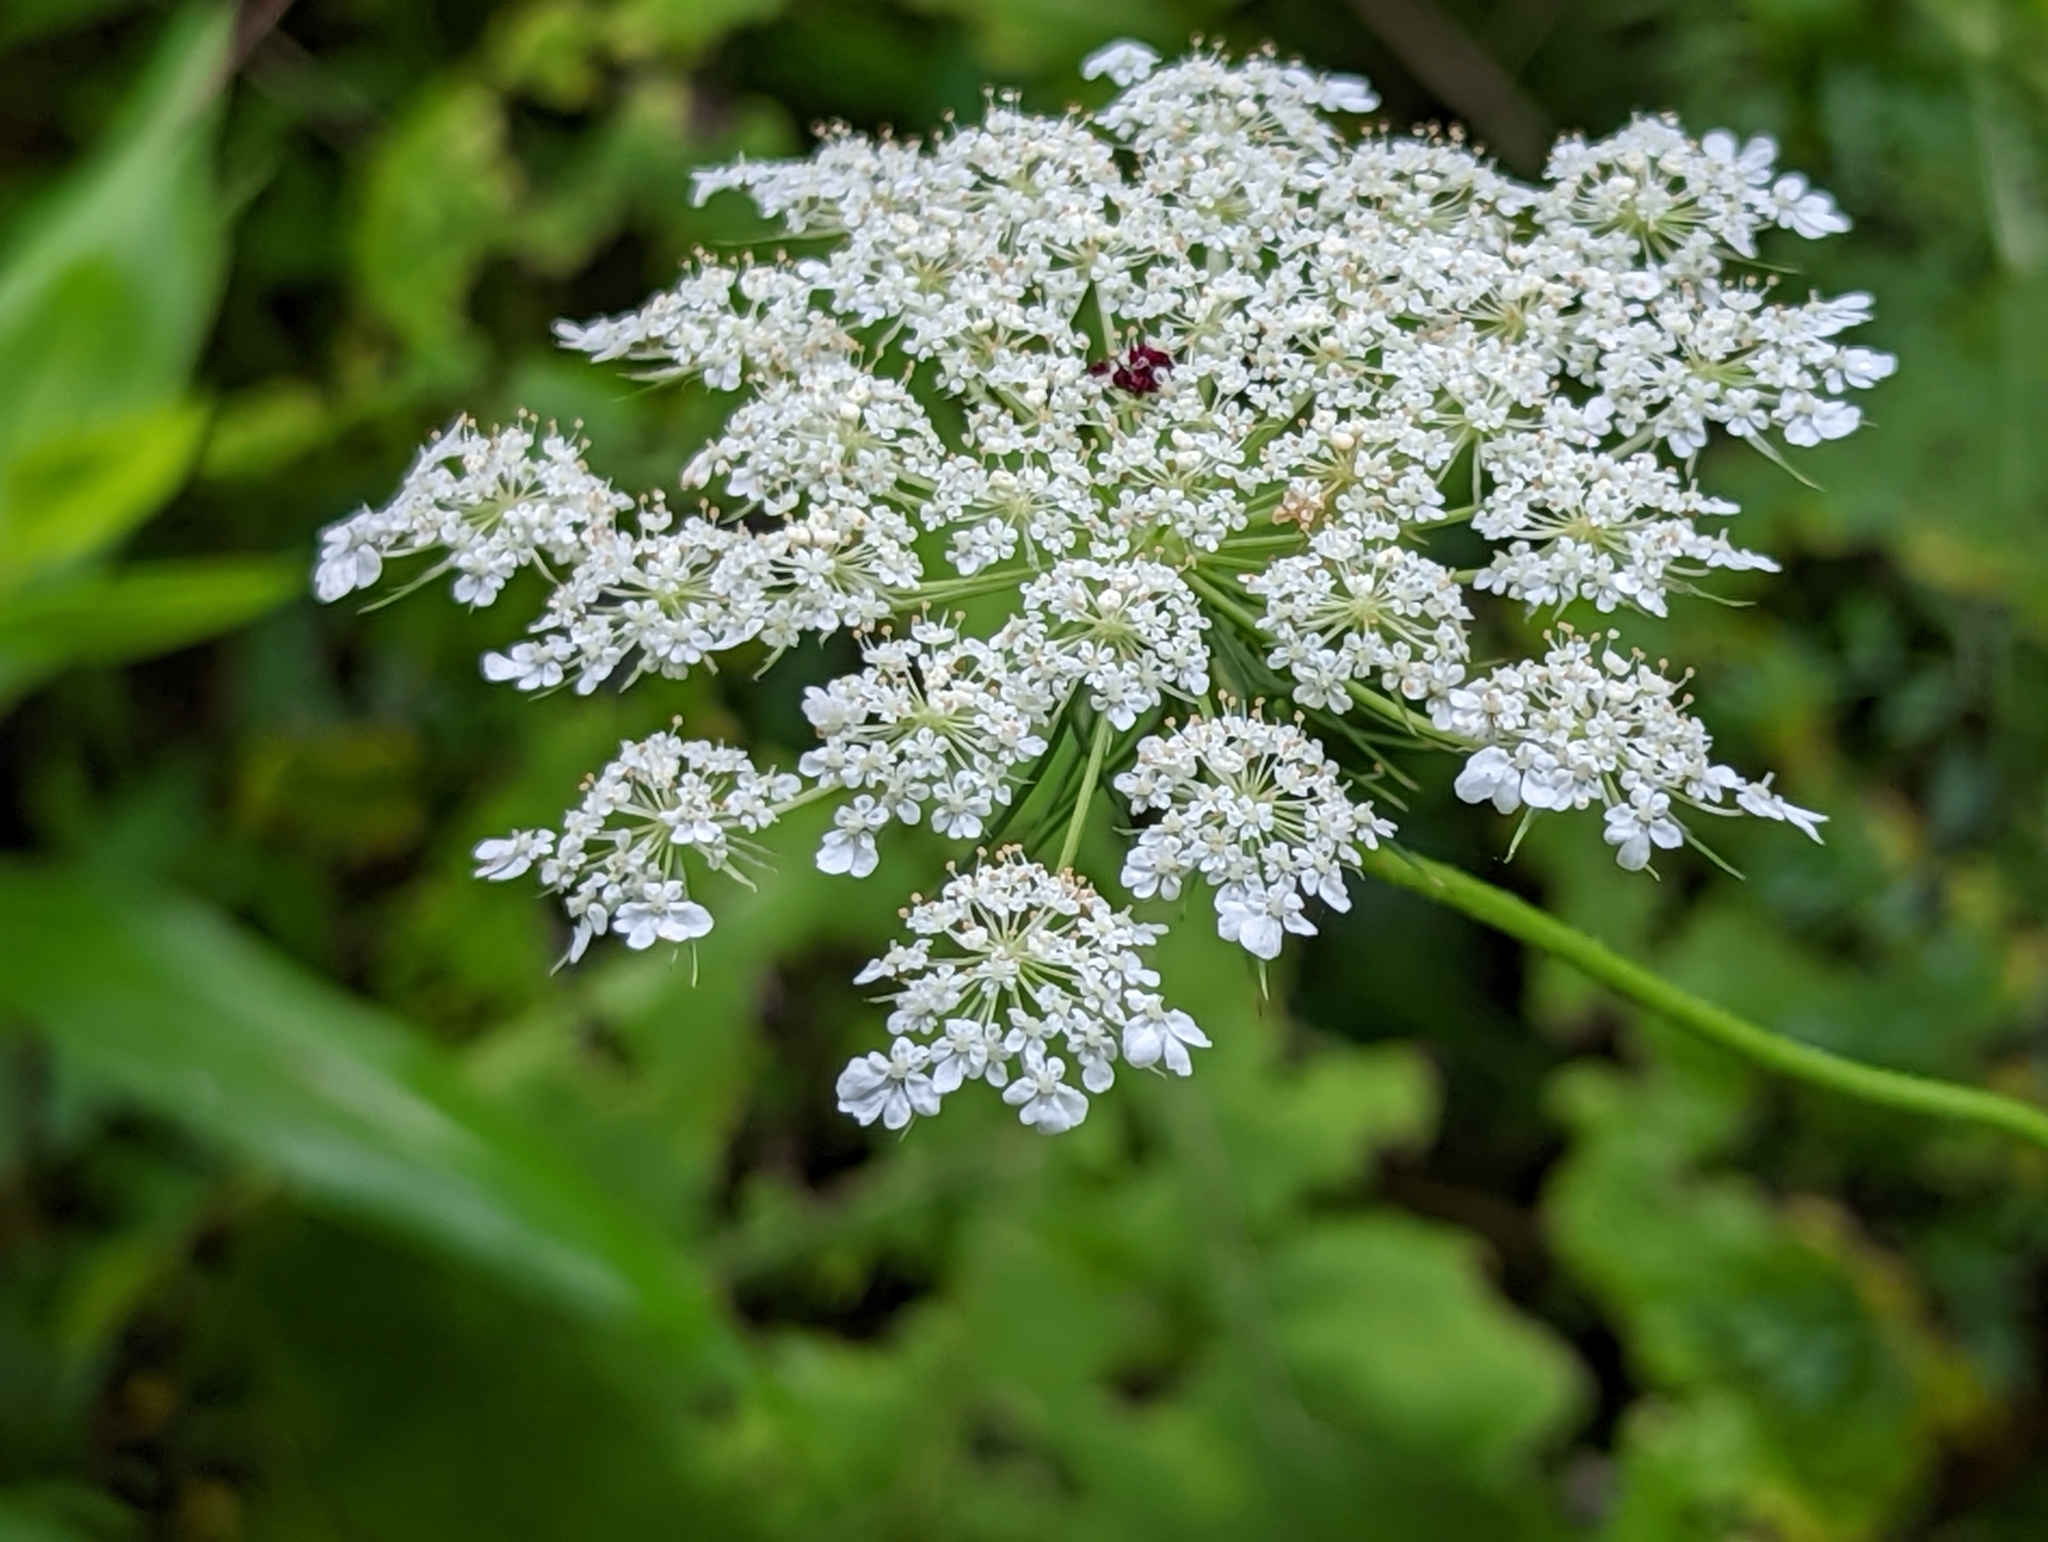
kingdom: Plantae
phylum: Tracheophyta
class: Magnoliopsida
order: Apiales
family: Apiaceae
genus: Daucus
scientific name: Daucus carota
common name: Wild carrot
